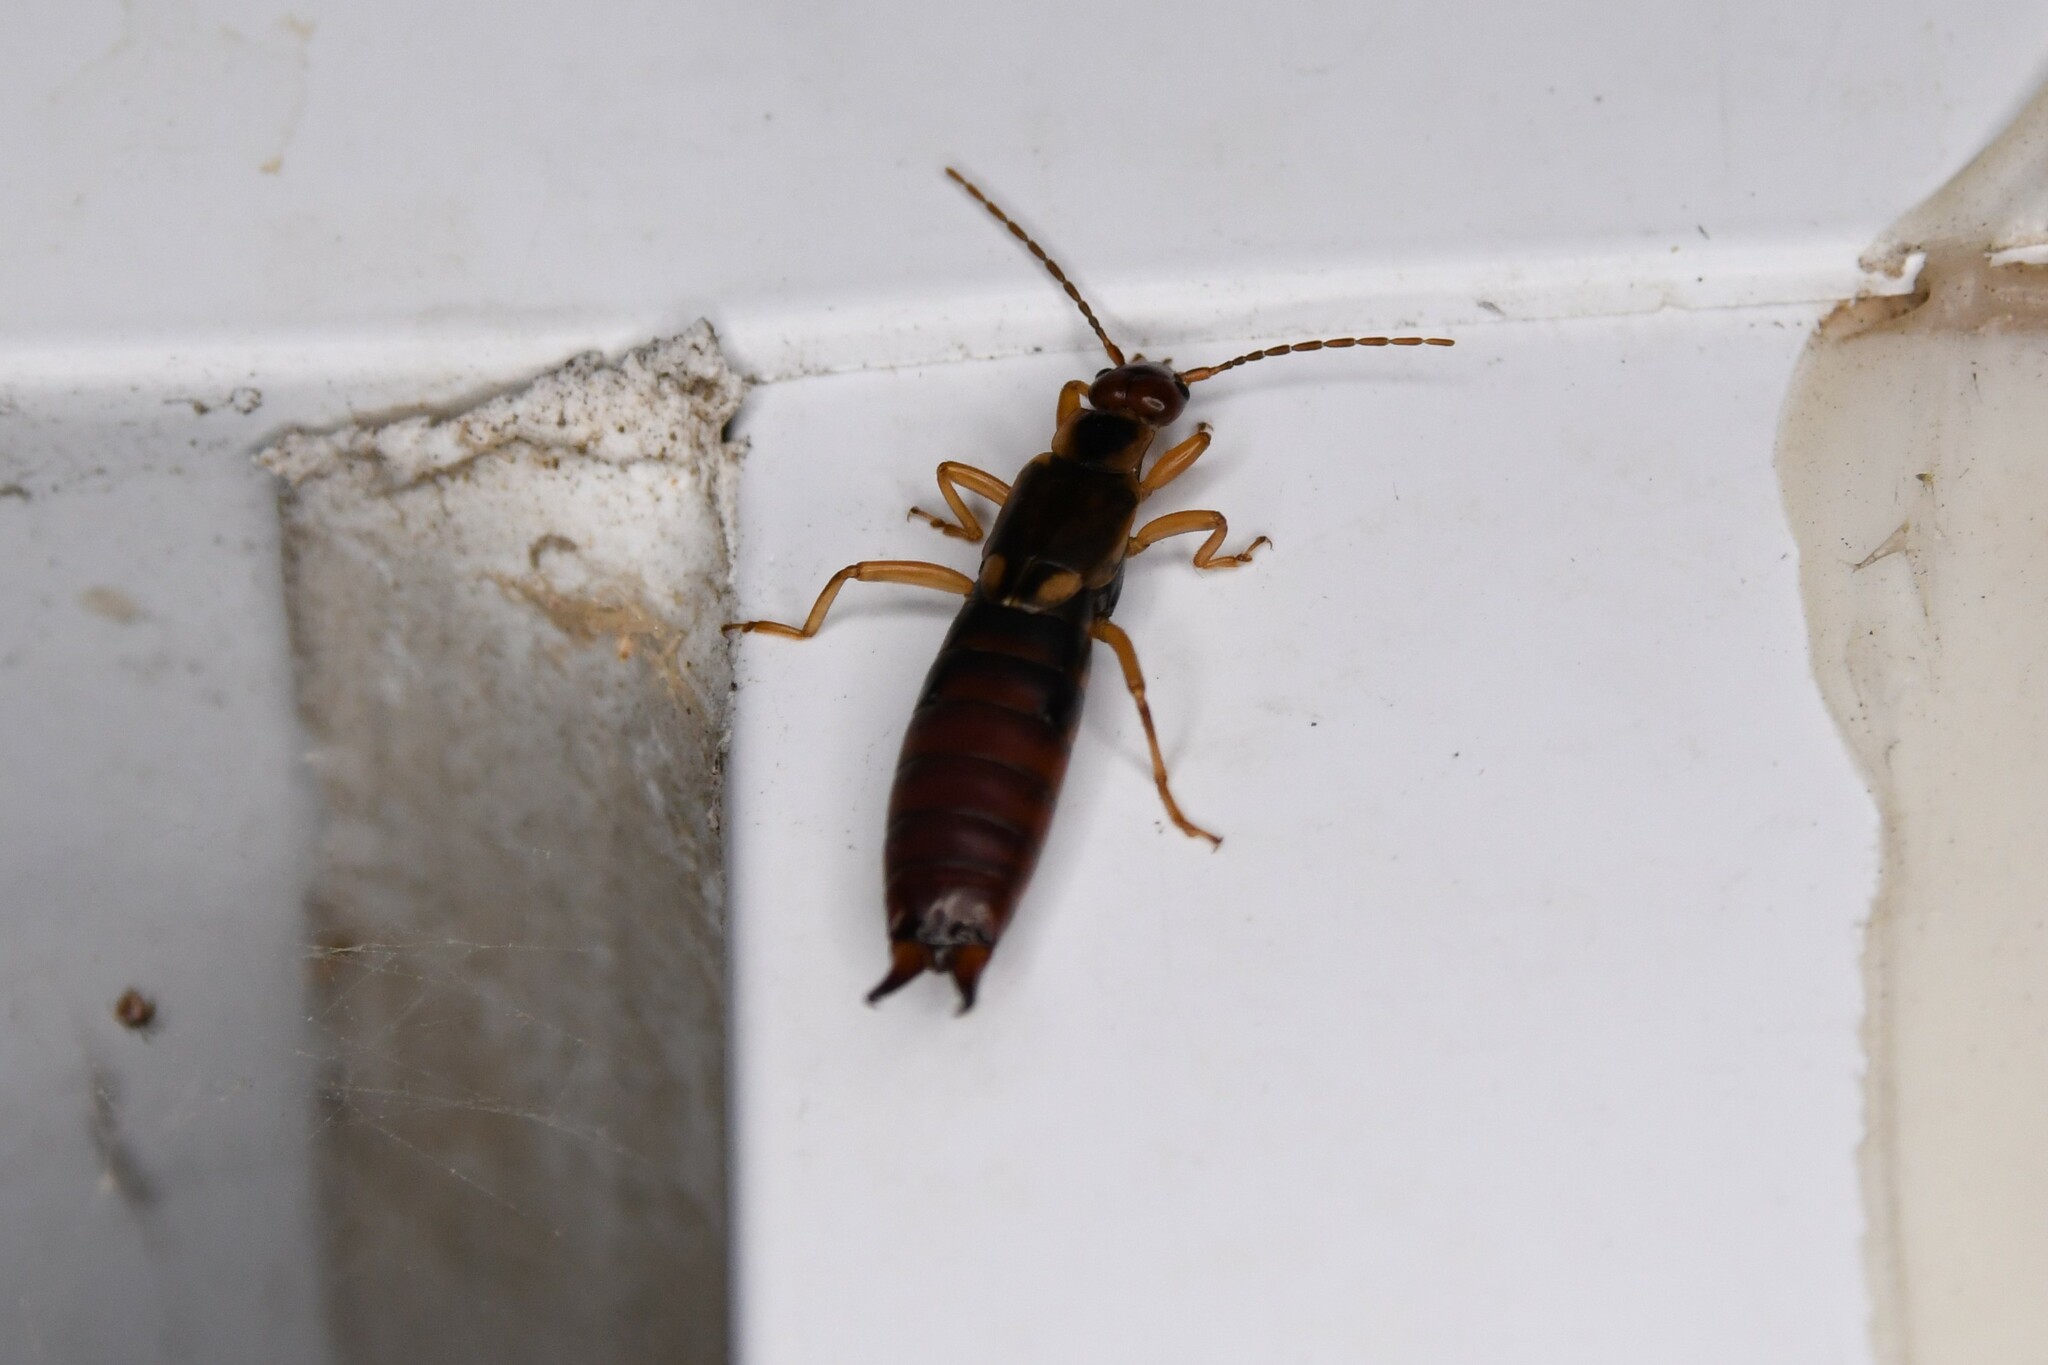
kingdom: Animalia
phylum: Arthropoda
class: Insecta
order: Dermaptera
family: Forficulidae
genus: Forficula
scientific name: Forficula
